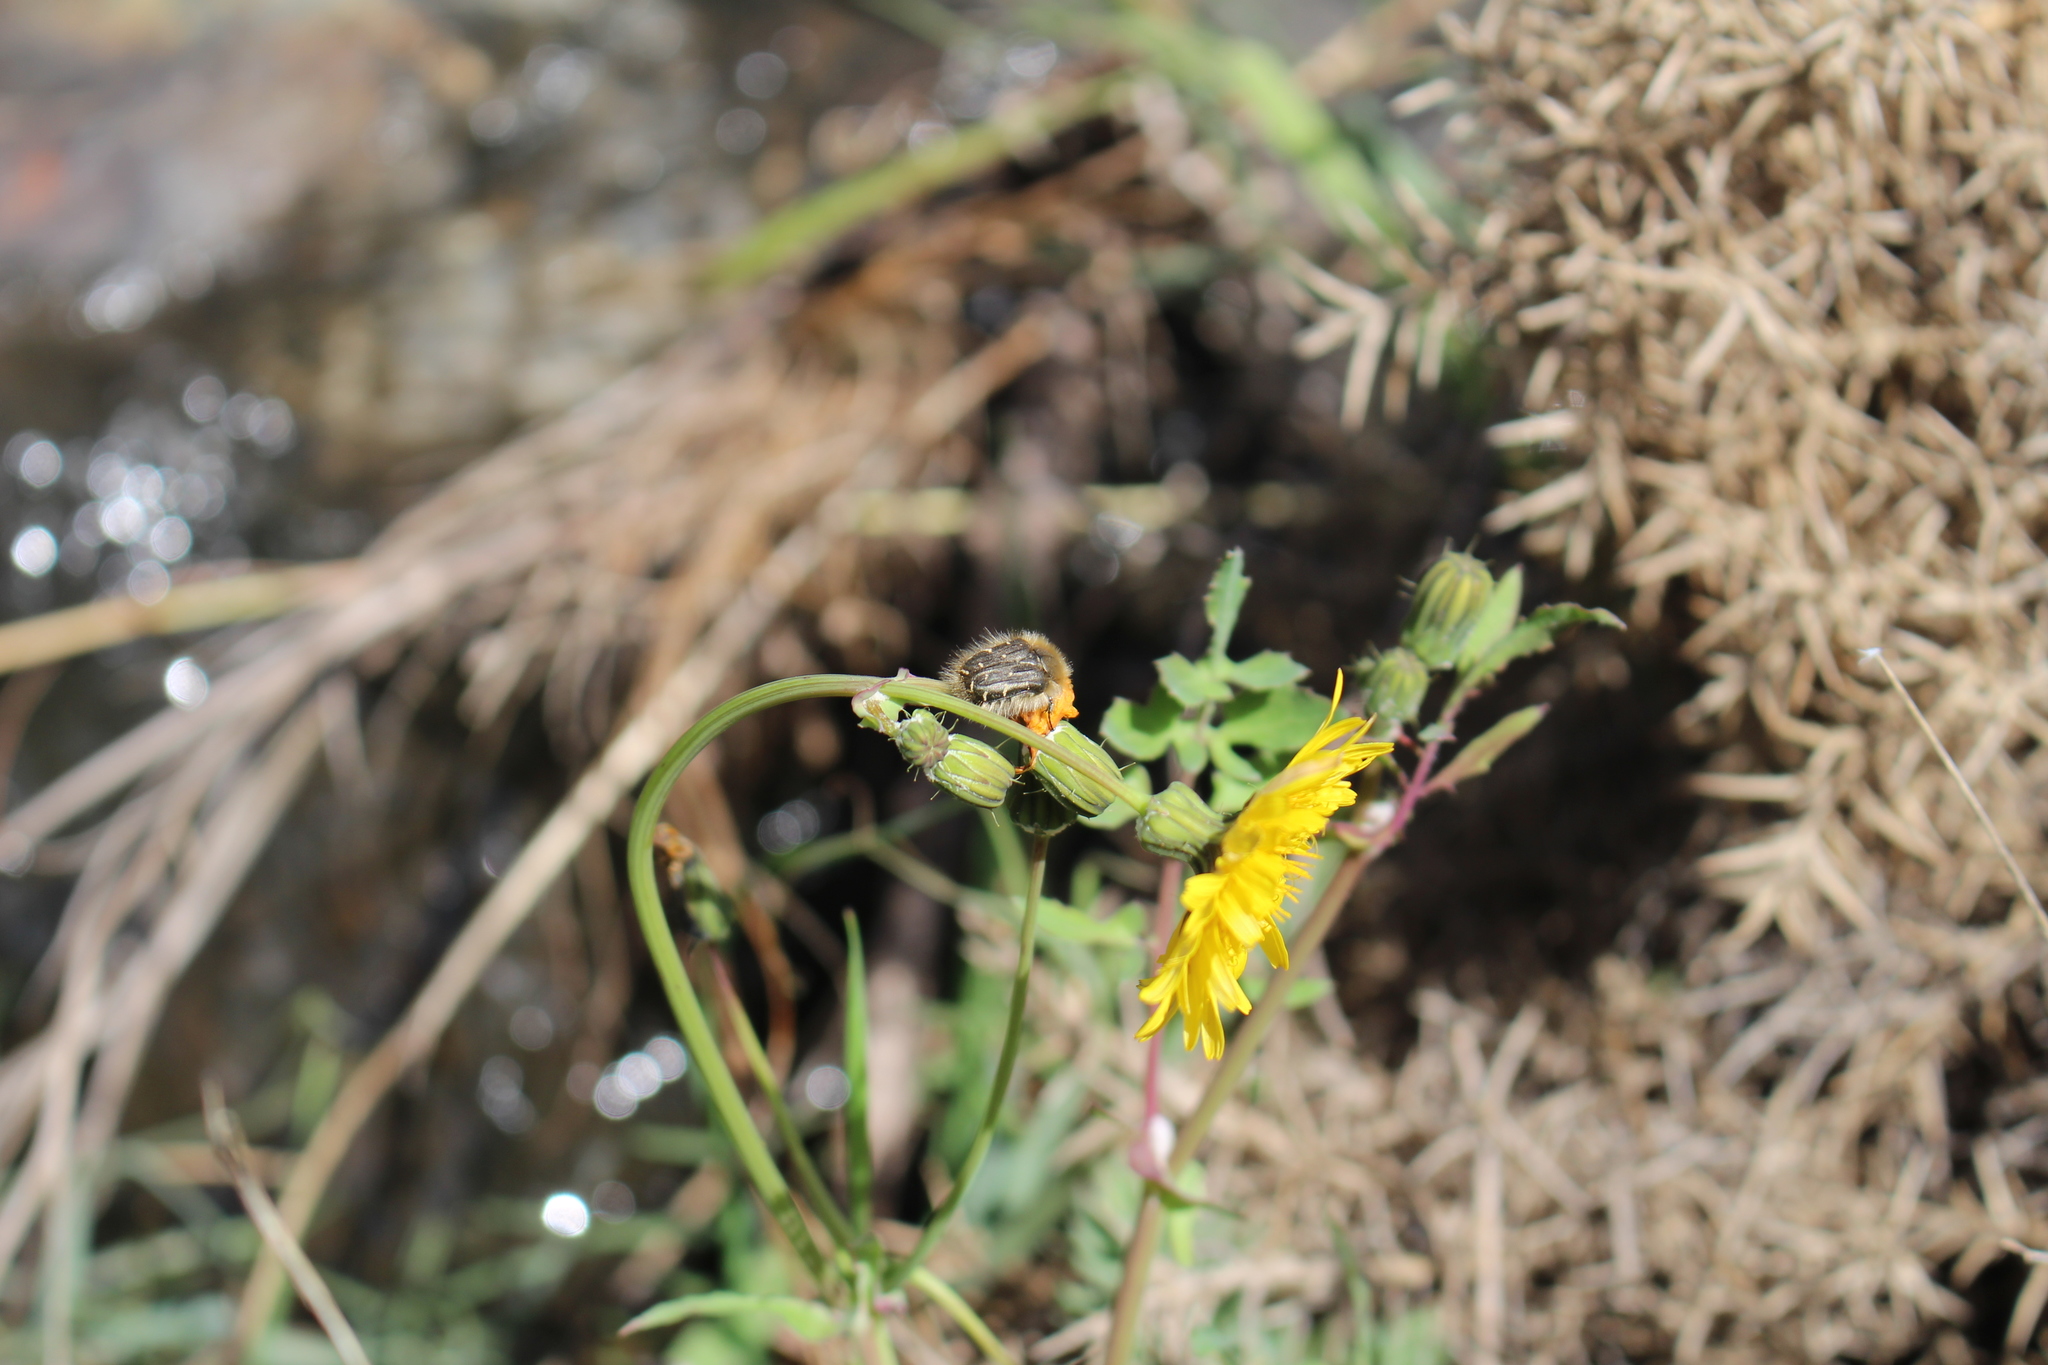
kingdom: Animalia
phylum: Arthropoda
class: Insecta
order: Coleoptera
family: Scarabaeidae
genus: Tropinota
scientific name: Tropinota hirta
